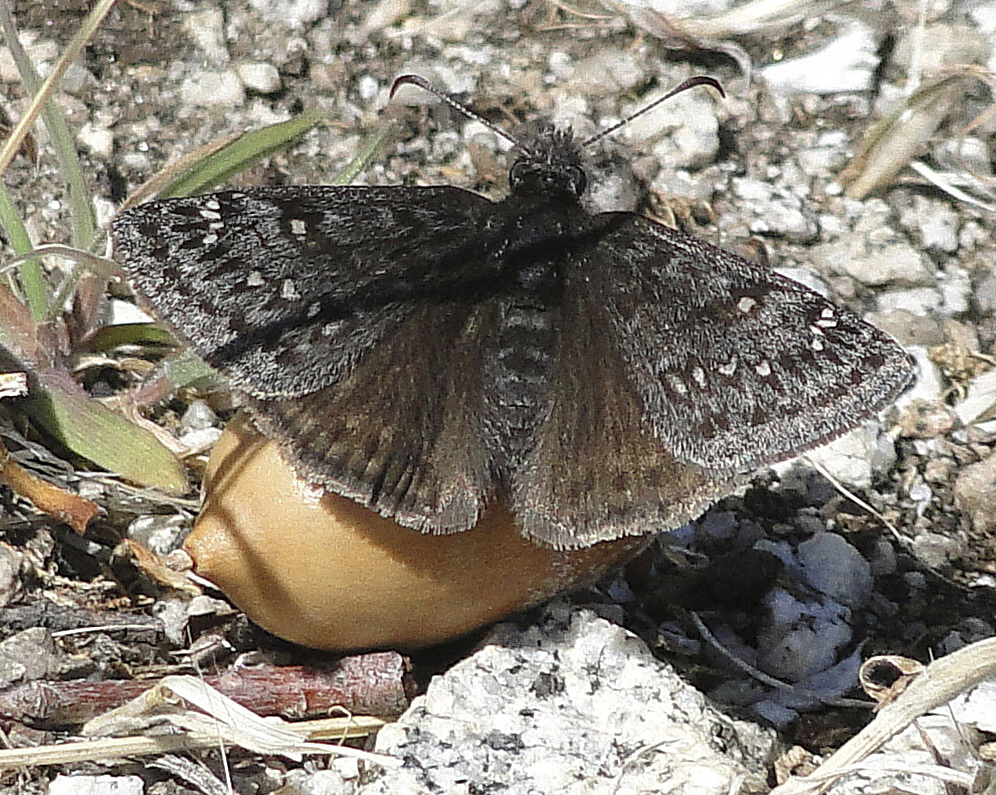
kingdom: Animalia
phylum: Arthropoda
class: Insecta
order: Lepidoptera
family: Hesperiidae
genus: Erynnis
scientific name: Erynnis propertius
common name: Propertius duskywing
